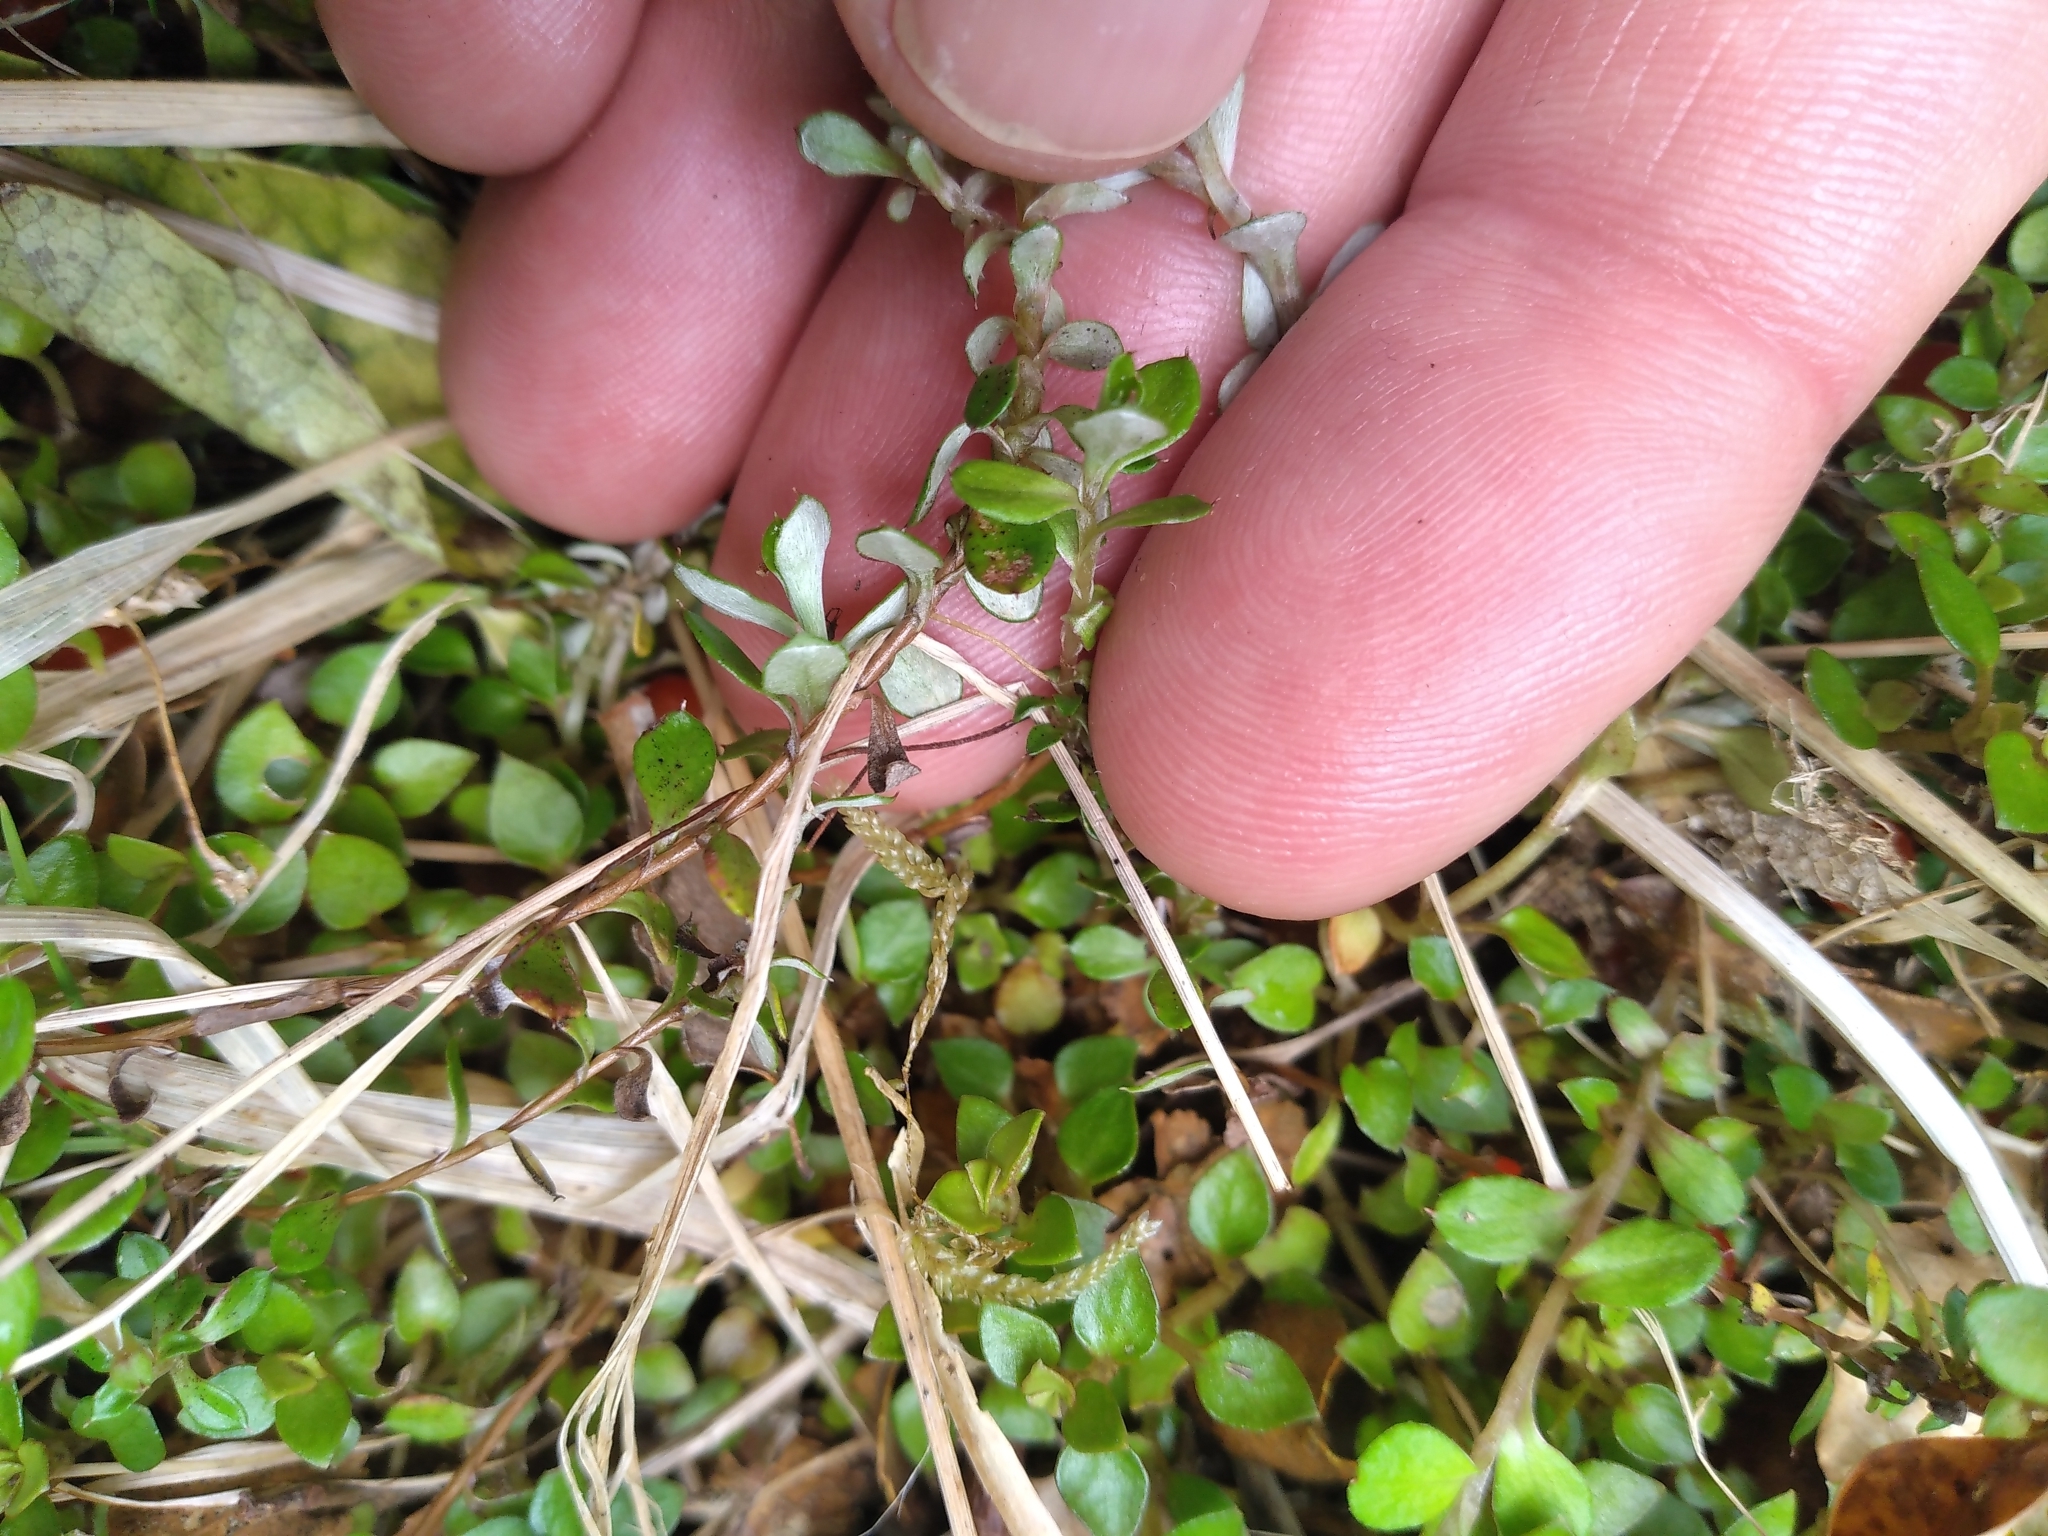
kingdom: Plantae
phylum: Tracheophyta
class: Magnoliopsida
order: Asterales
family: Asteraceae
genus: Anaphalioides
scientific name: Anaphalioides bellidioides
